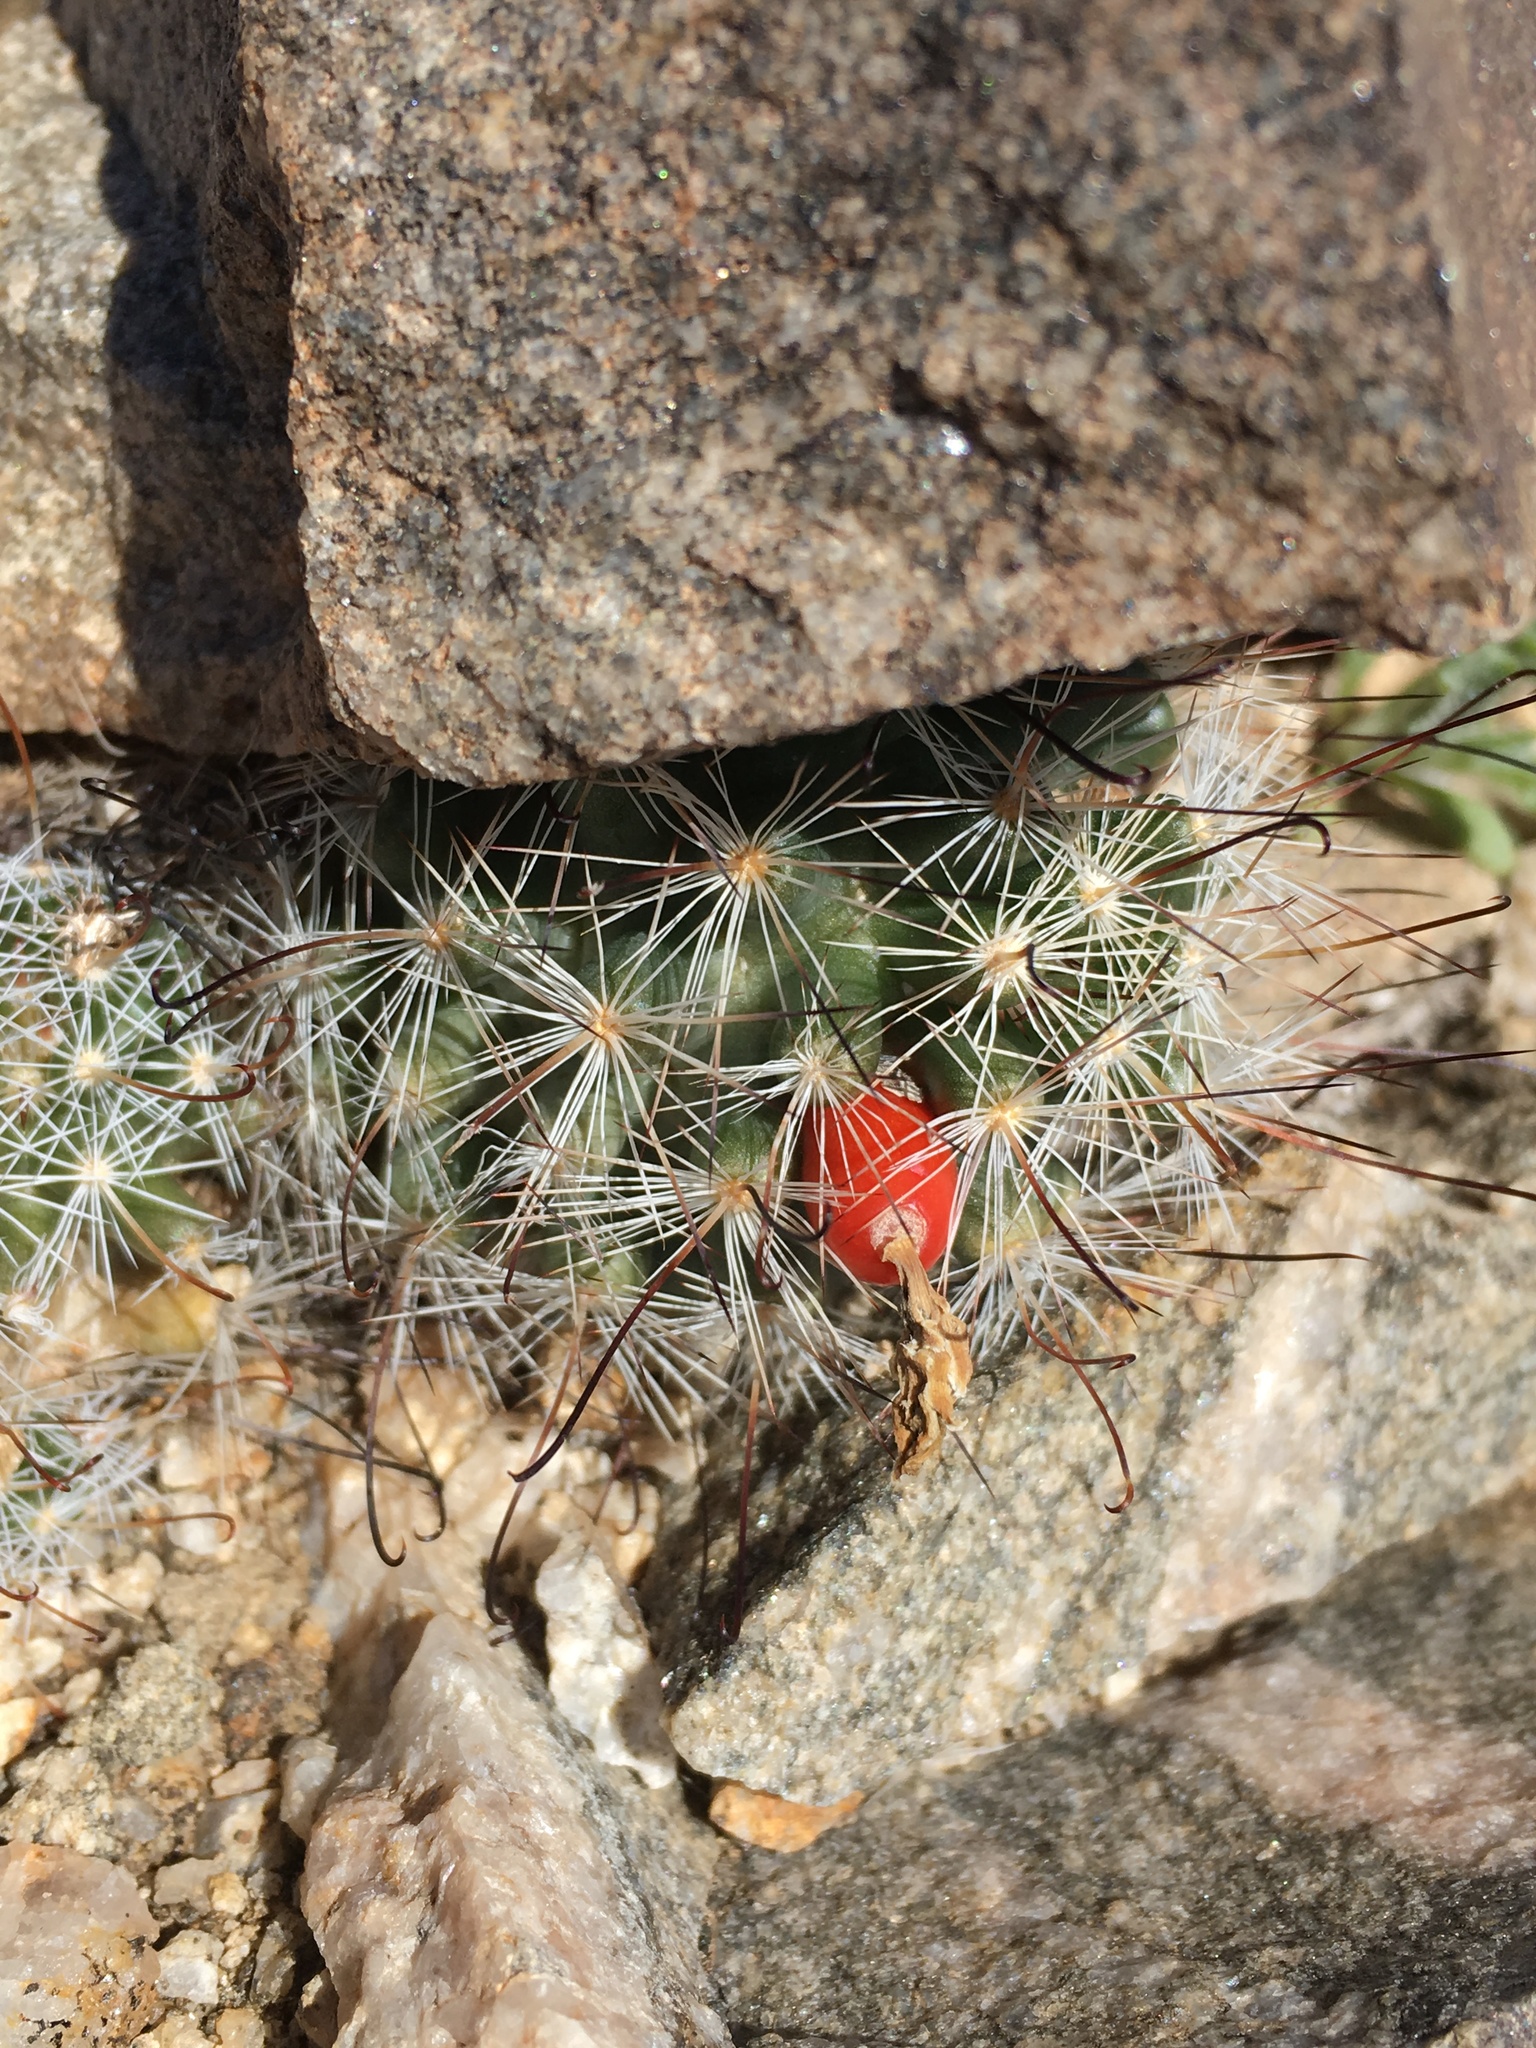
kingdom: Plantae
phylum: Tracheophyta
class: Magnoliopsida
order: Caryophyllales
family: Cactaceae
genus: Cochemiea
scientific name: Cochemiea tetrancistra
